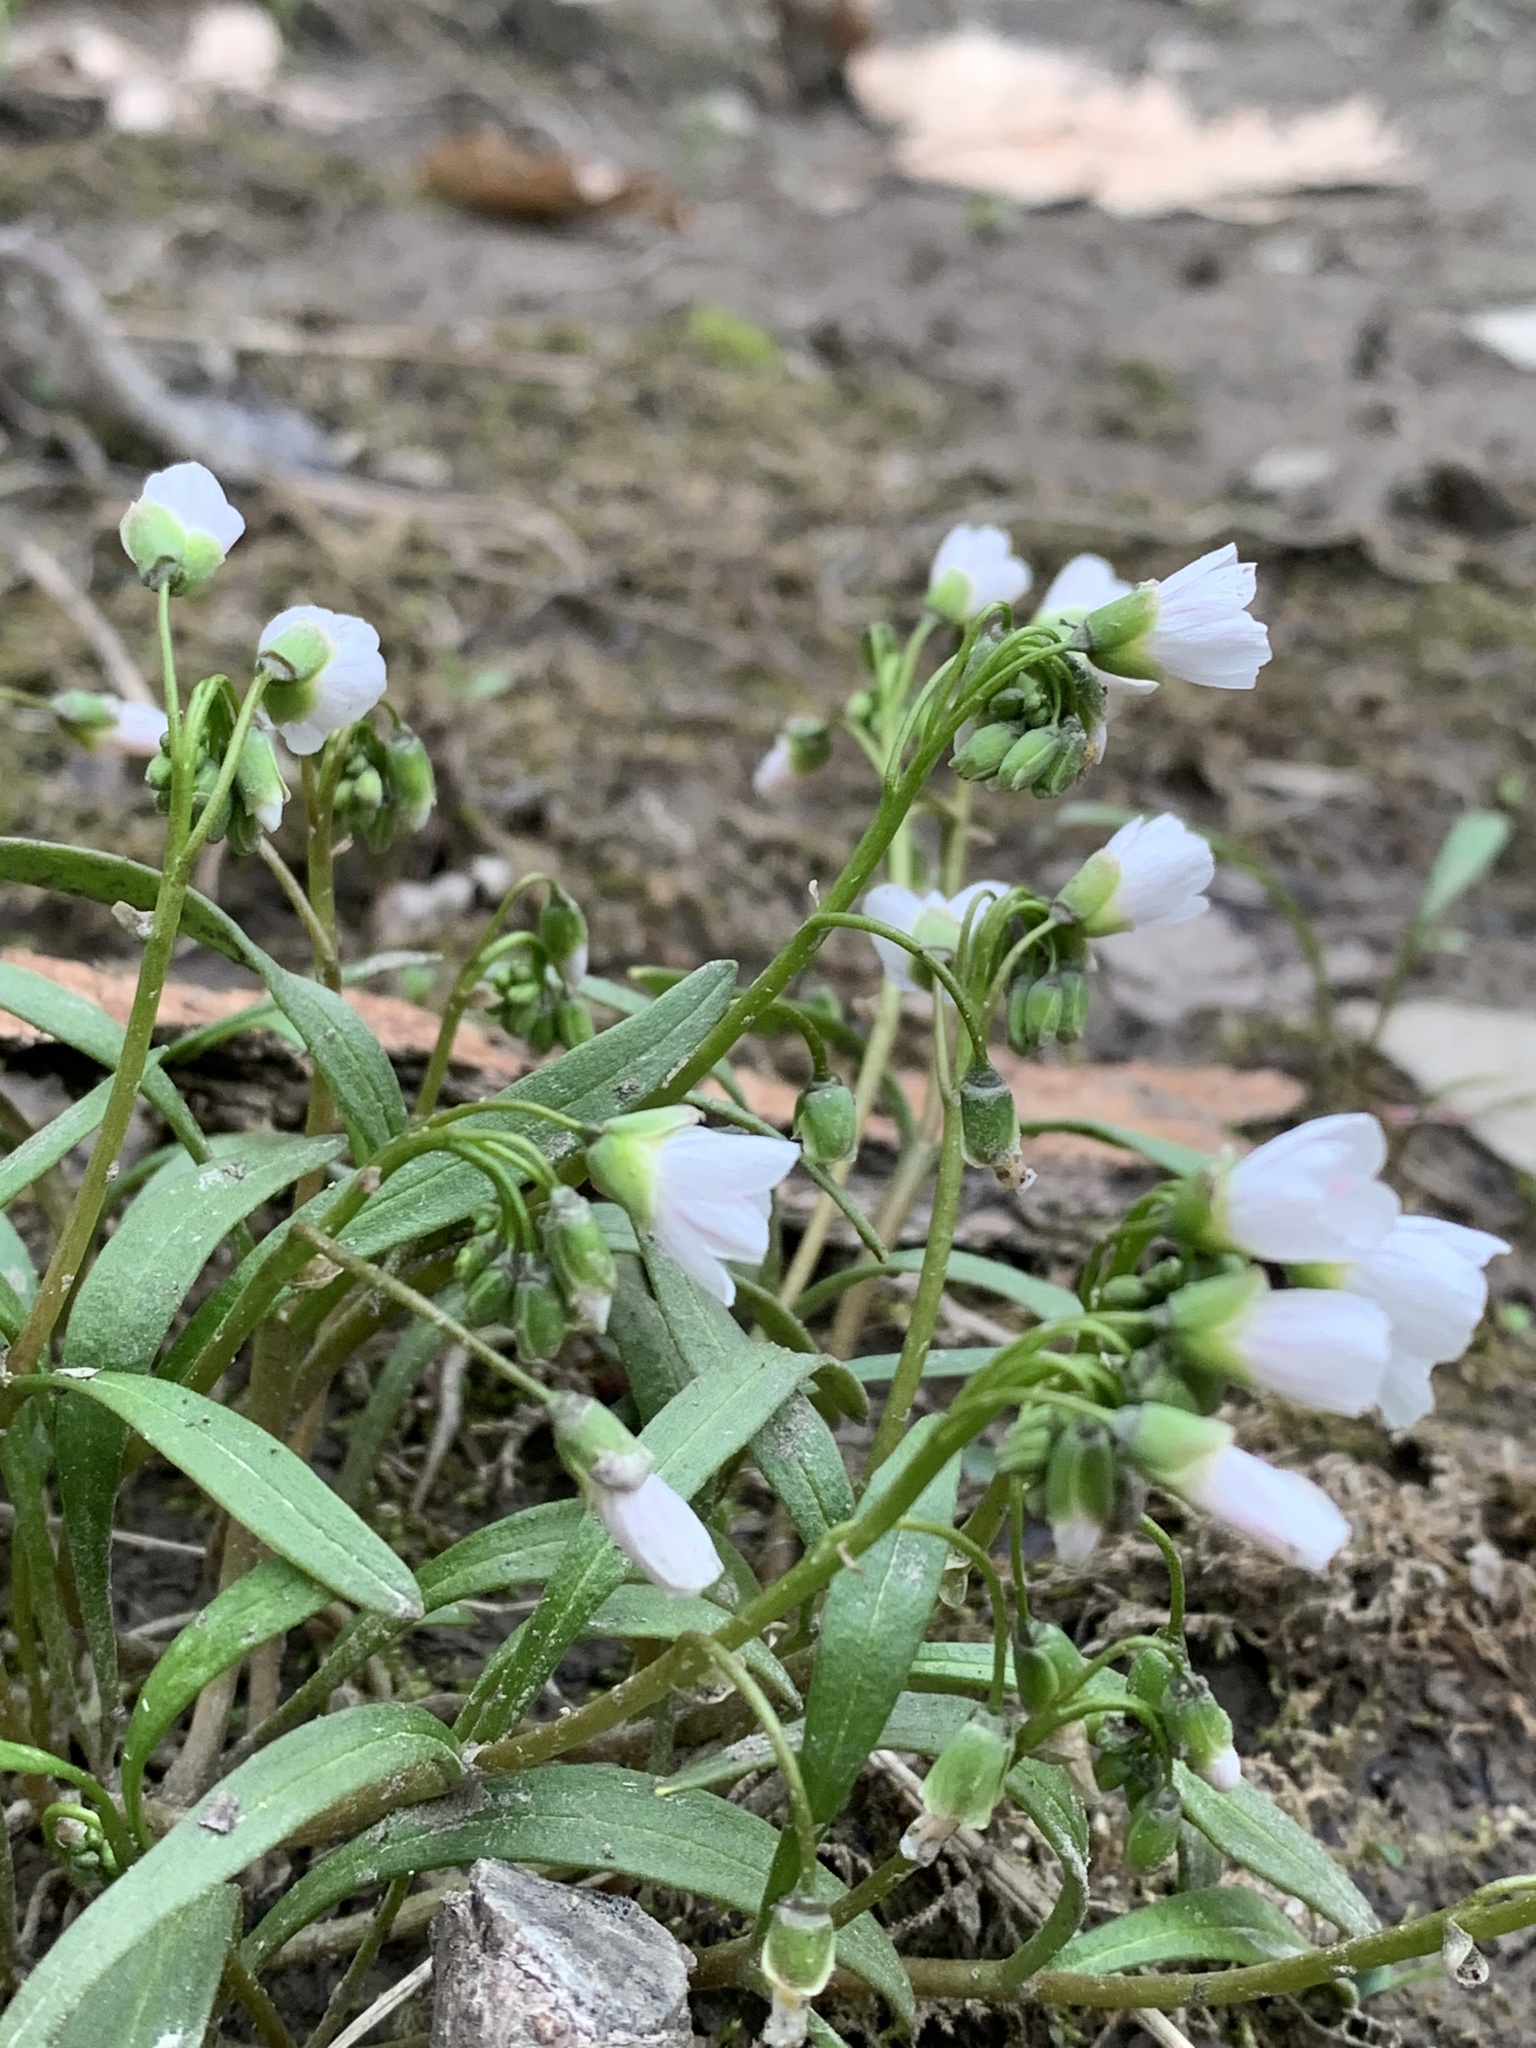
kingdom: Plantae
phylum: Tracheophyta
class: Magnoliopsida
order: Caryophyllales
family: Montiaceae
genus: Claytonia
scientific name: Claytonia virginica
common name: Virginia springbeauty
